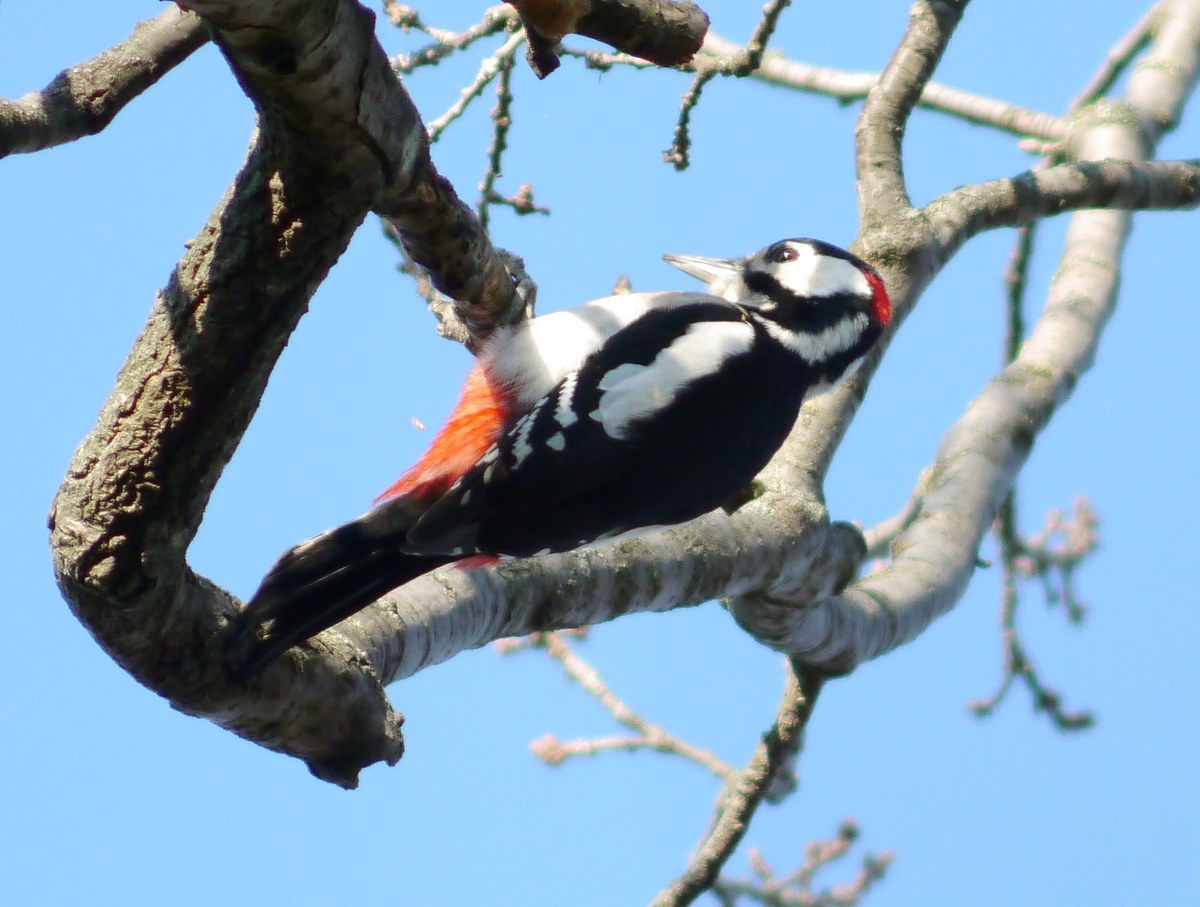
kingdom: Animalia
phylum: Chordata
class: Aves
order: Piciformes
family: Picidae
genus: Dendrocopos
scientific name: Dendrocopos major
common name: Great spotted woodpecker
